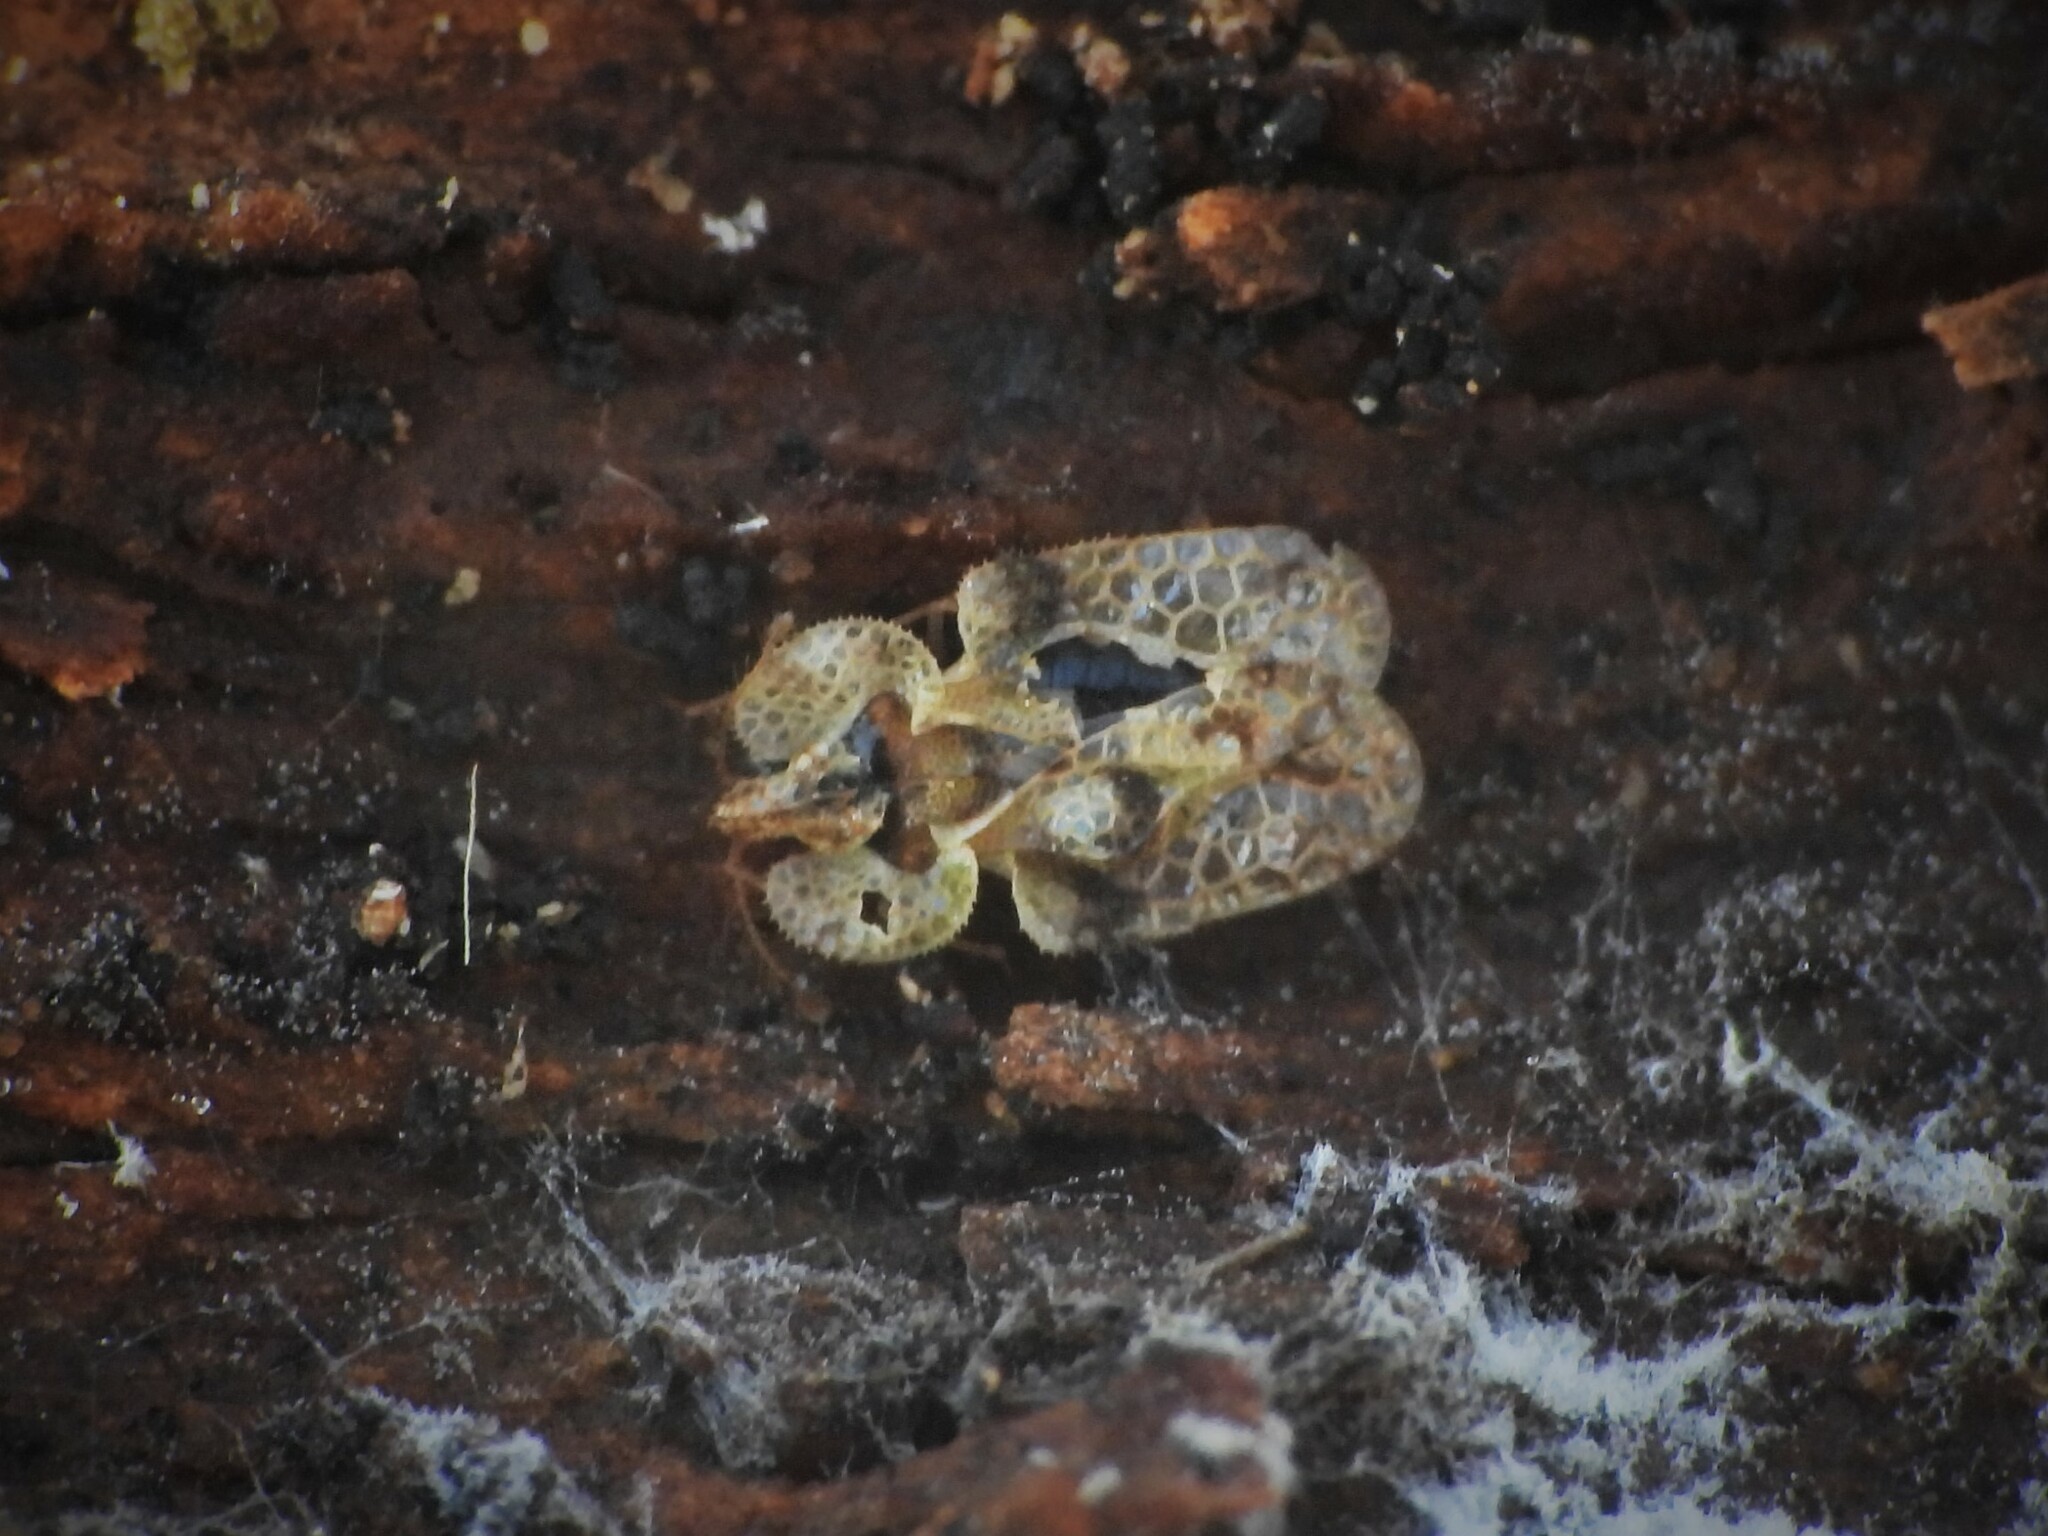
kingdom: Animalia
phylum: Arthropoda
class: Insecta
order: Hemiptera
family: Tingidae
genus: Corythucha
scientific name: Corythucha arcuata
